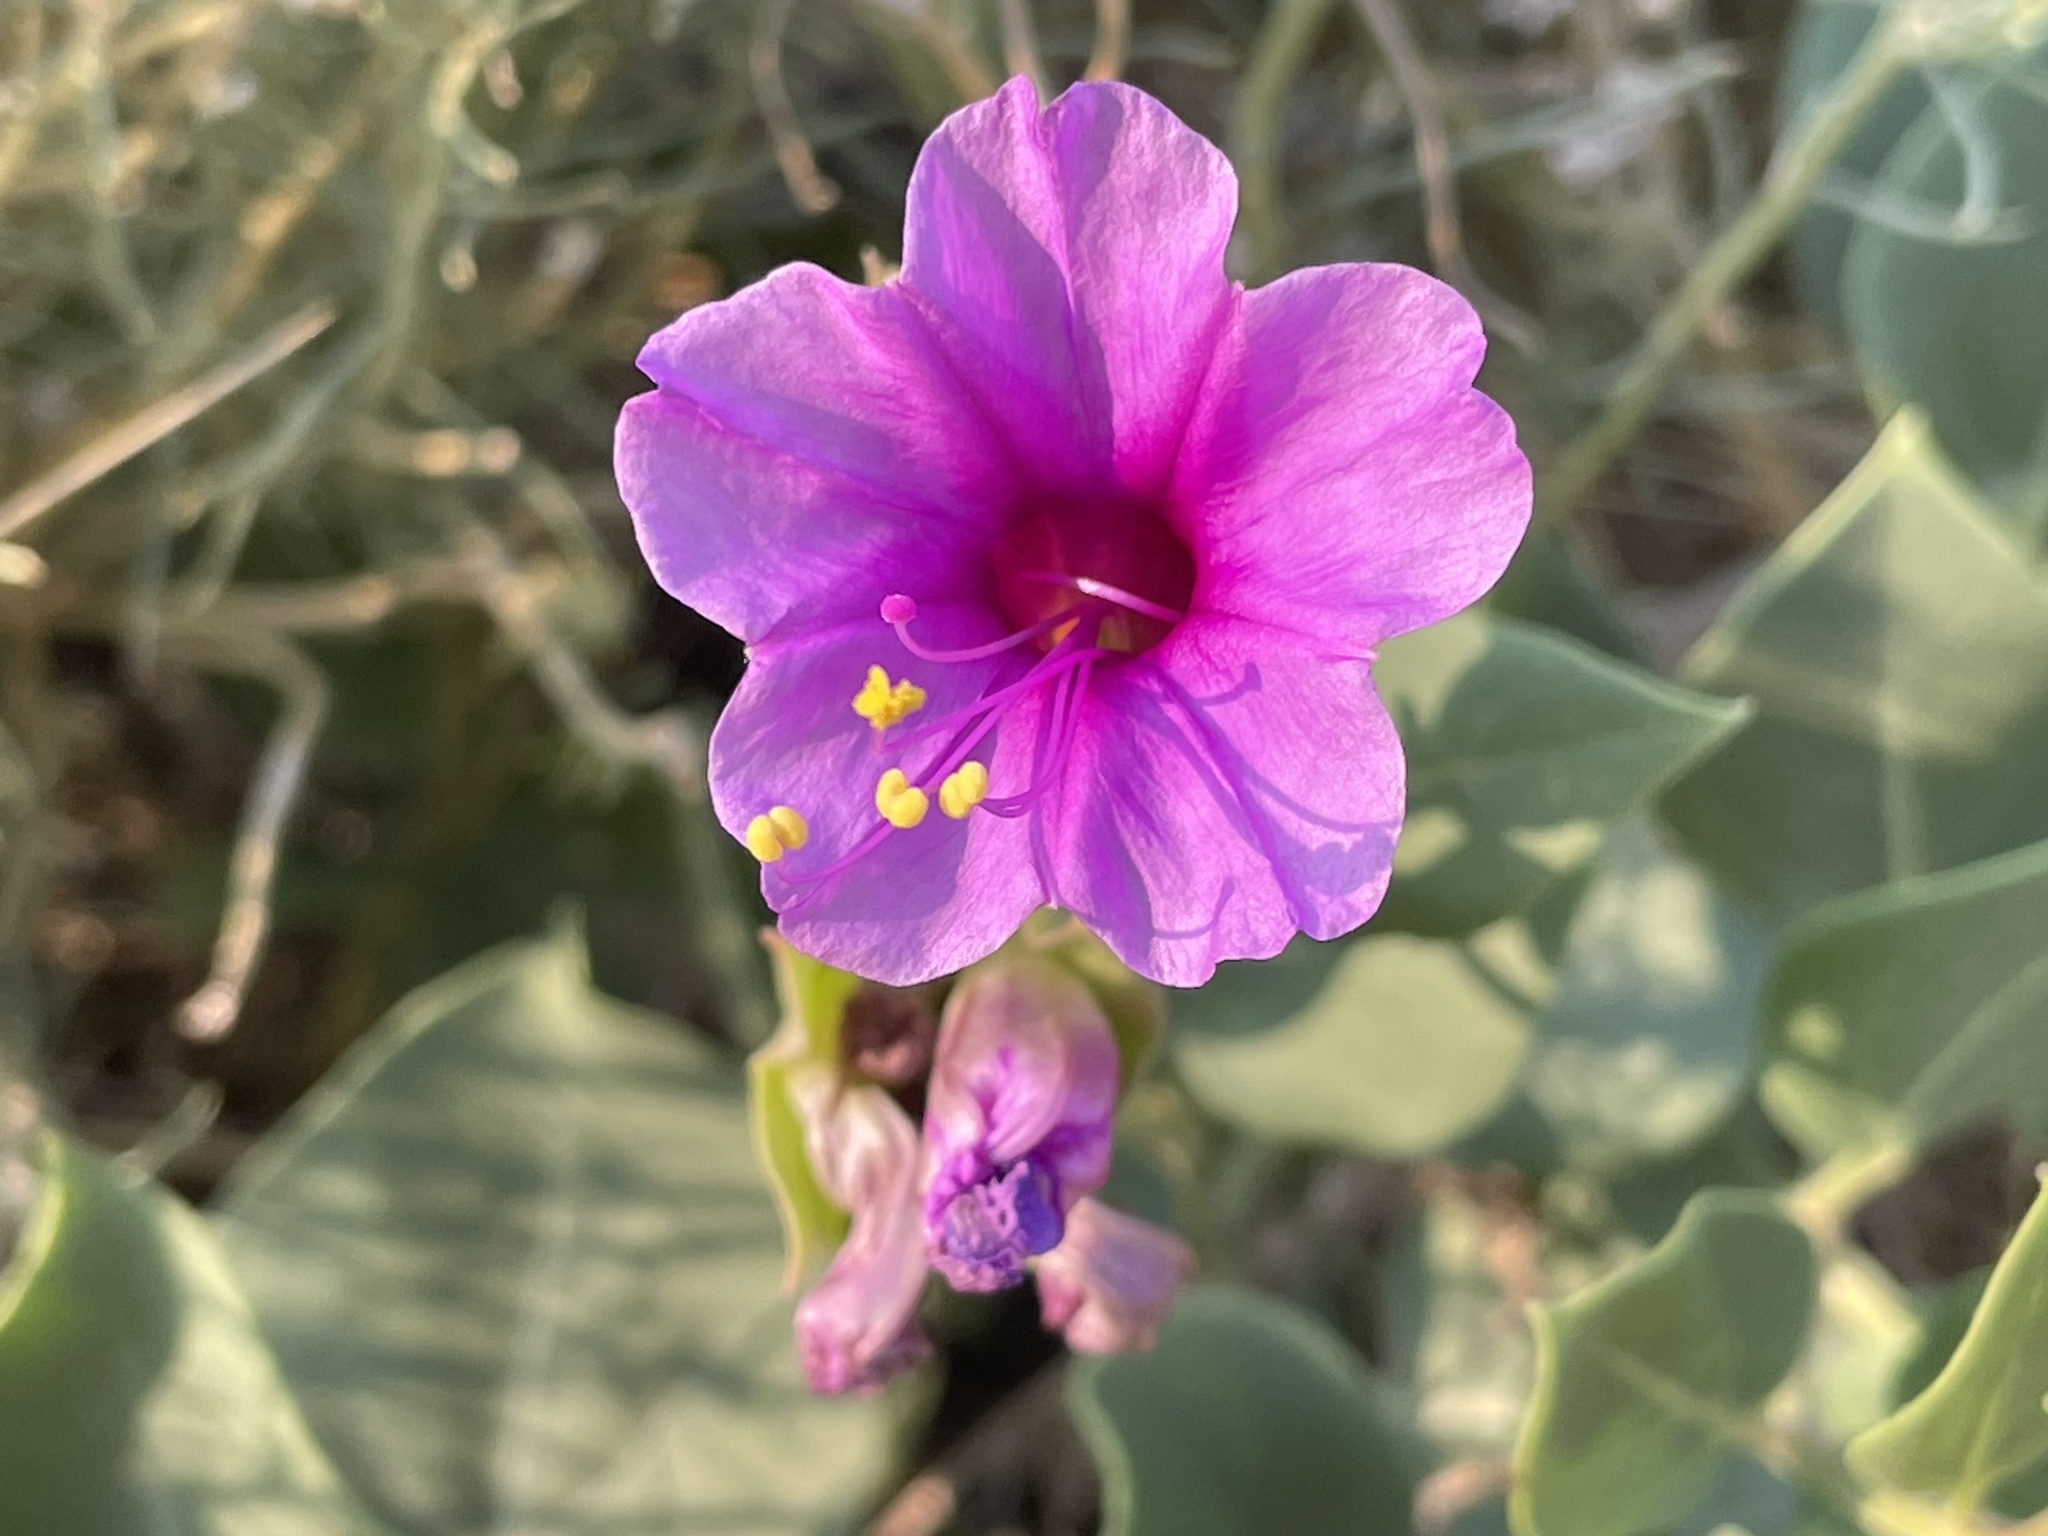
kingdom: Plantae
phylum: Tracheophyta
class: Magnoliopsida
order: Caryophyllales
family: Nyctaginaceae
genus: Mirabilis
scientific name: Mirabilis multiflora
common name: Froebel's four-o'clock
